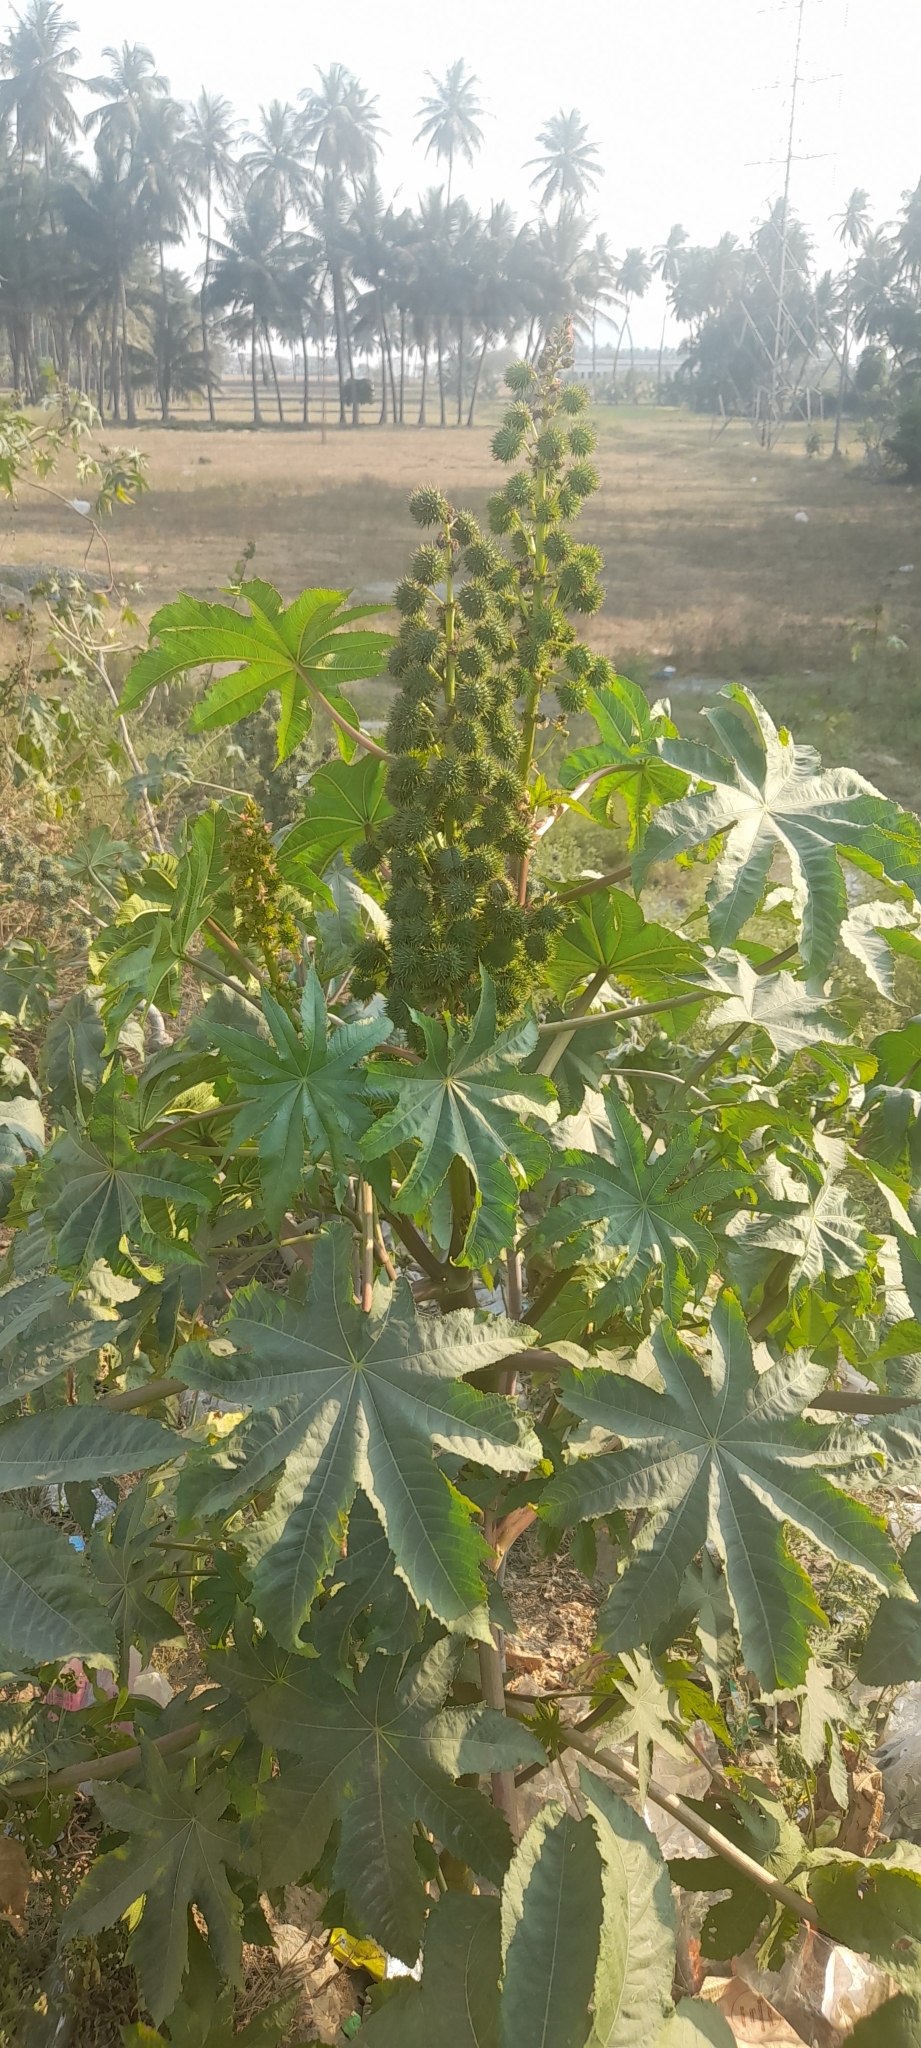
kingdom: Plantae
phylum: Tracheophyta
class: Magnoliopsida
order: Malpighiales
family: Euphorbiaceae
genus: Ricinus
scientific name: Ricinus communis
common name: Castor-oil-plant
